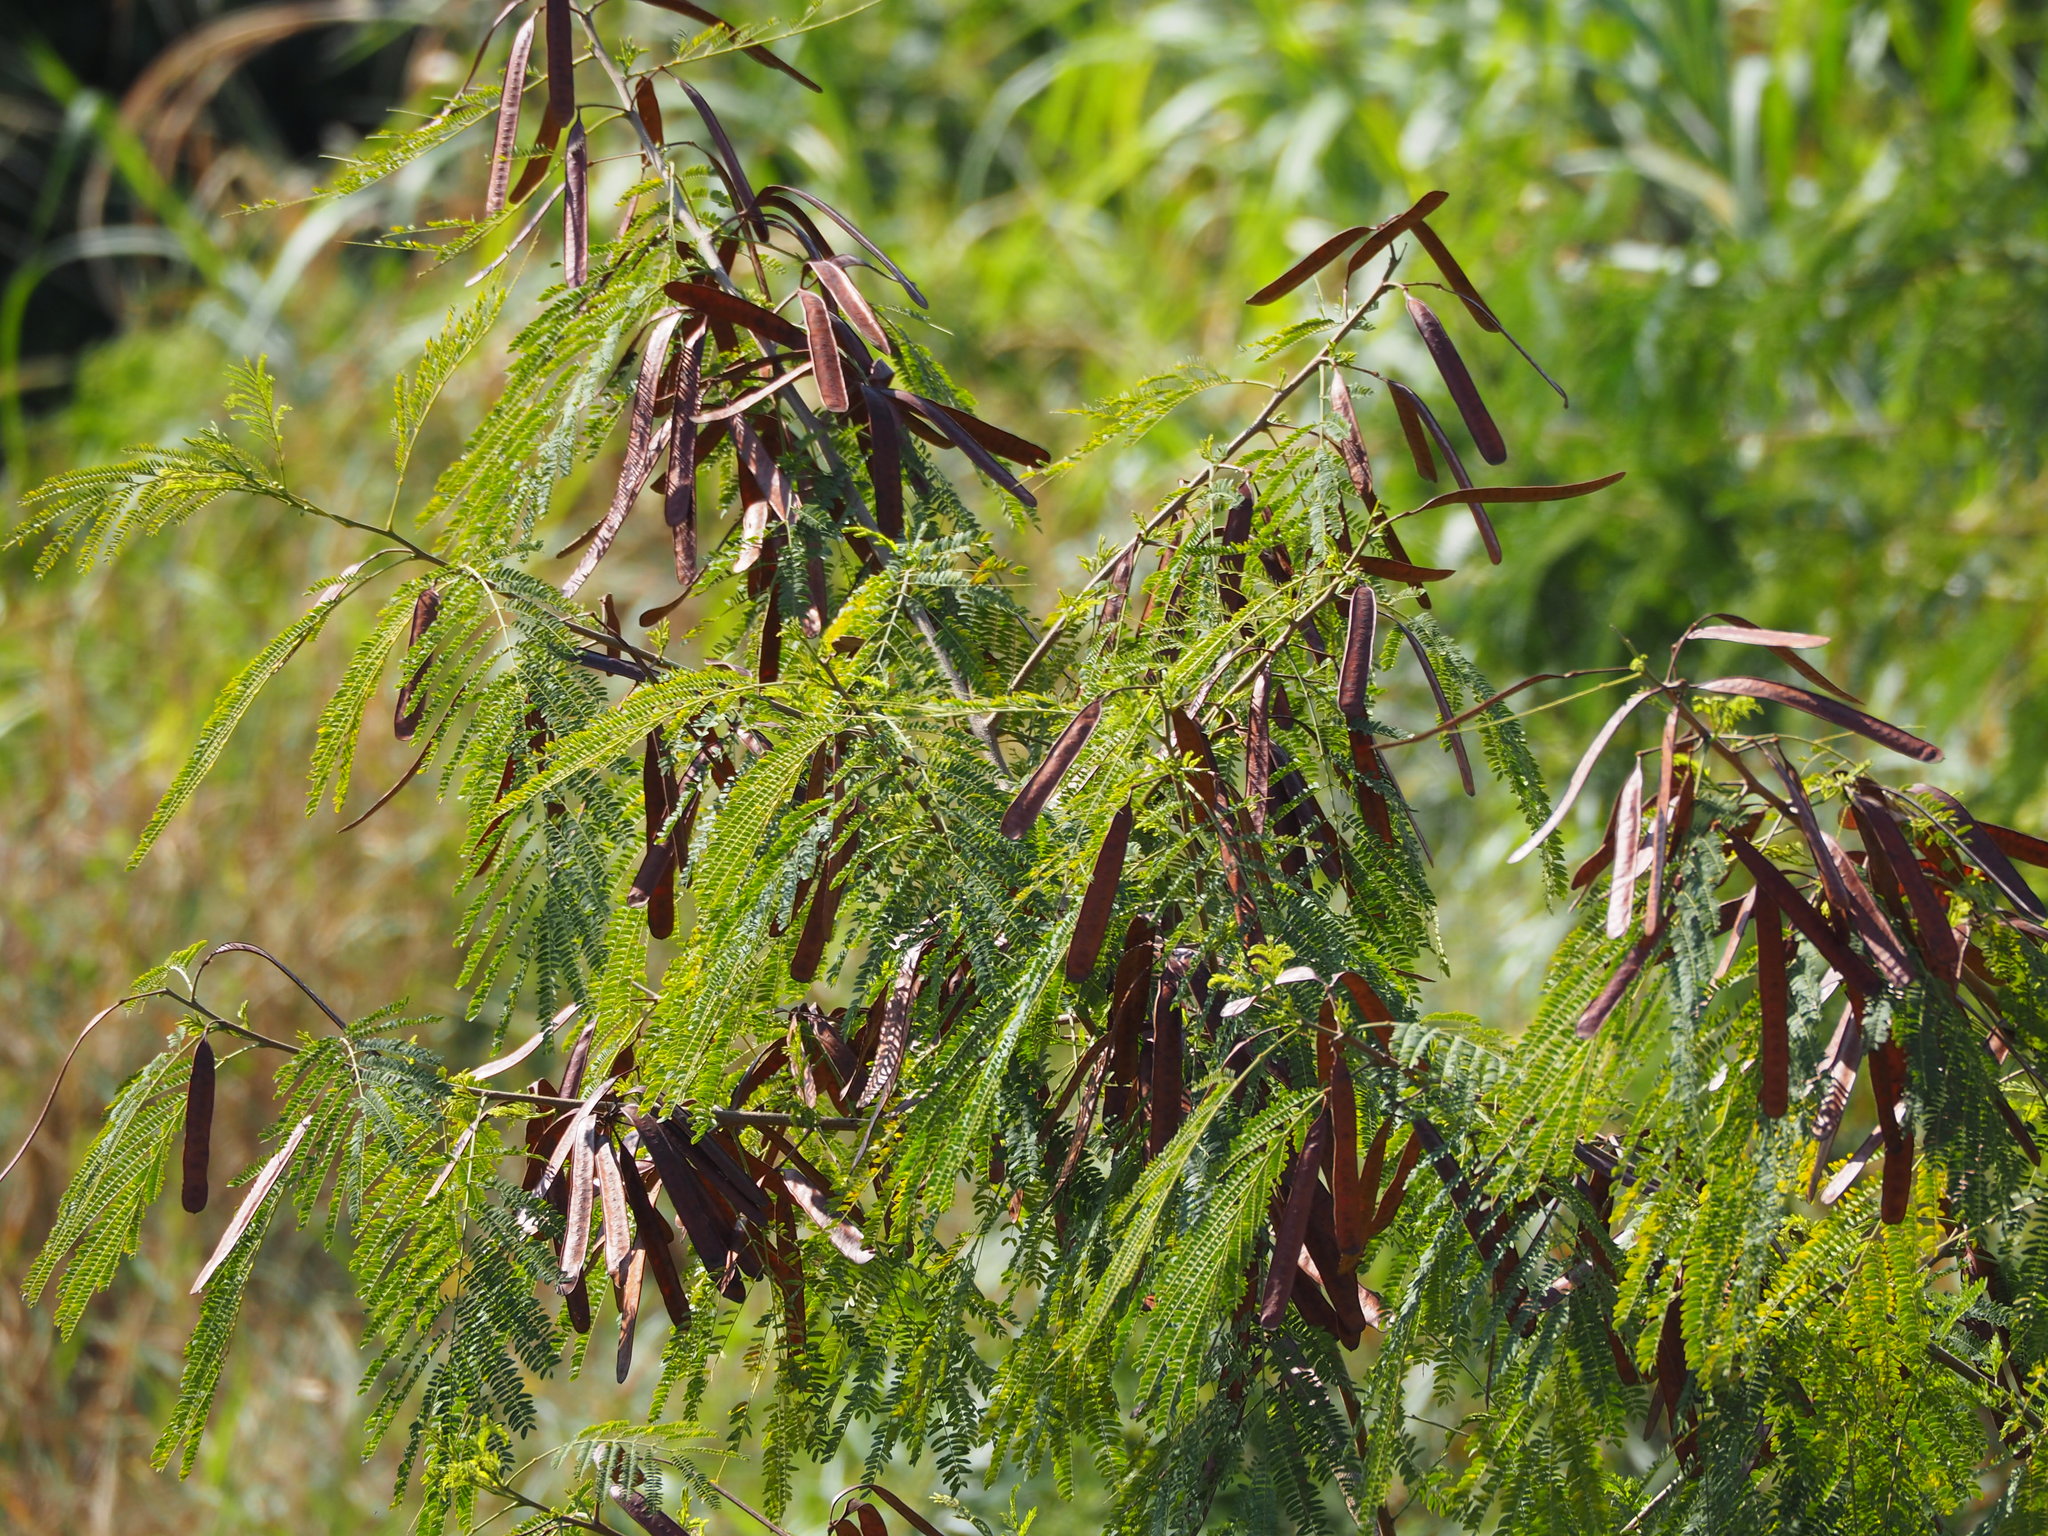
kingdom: Plantae
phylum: Tracheophyta
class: Magnoliopsida
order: Fabales
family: Fabaceae
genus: Leucaena
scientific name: Leucaena leucocephala
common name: White leadtree
